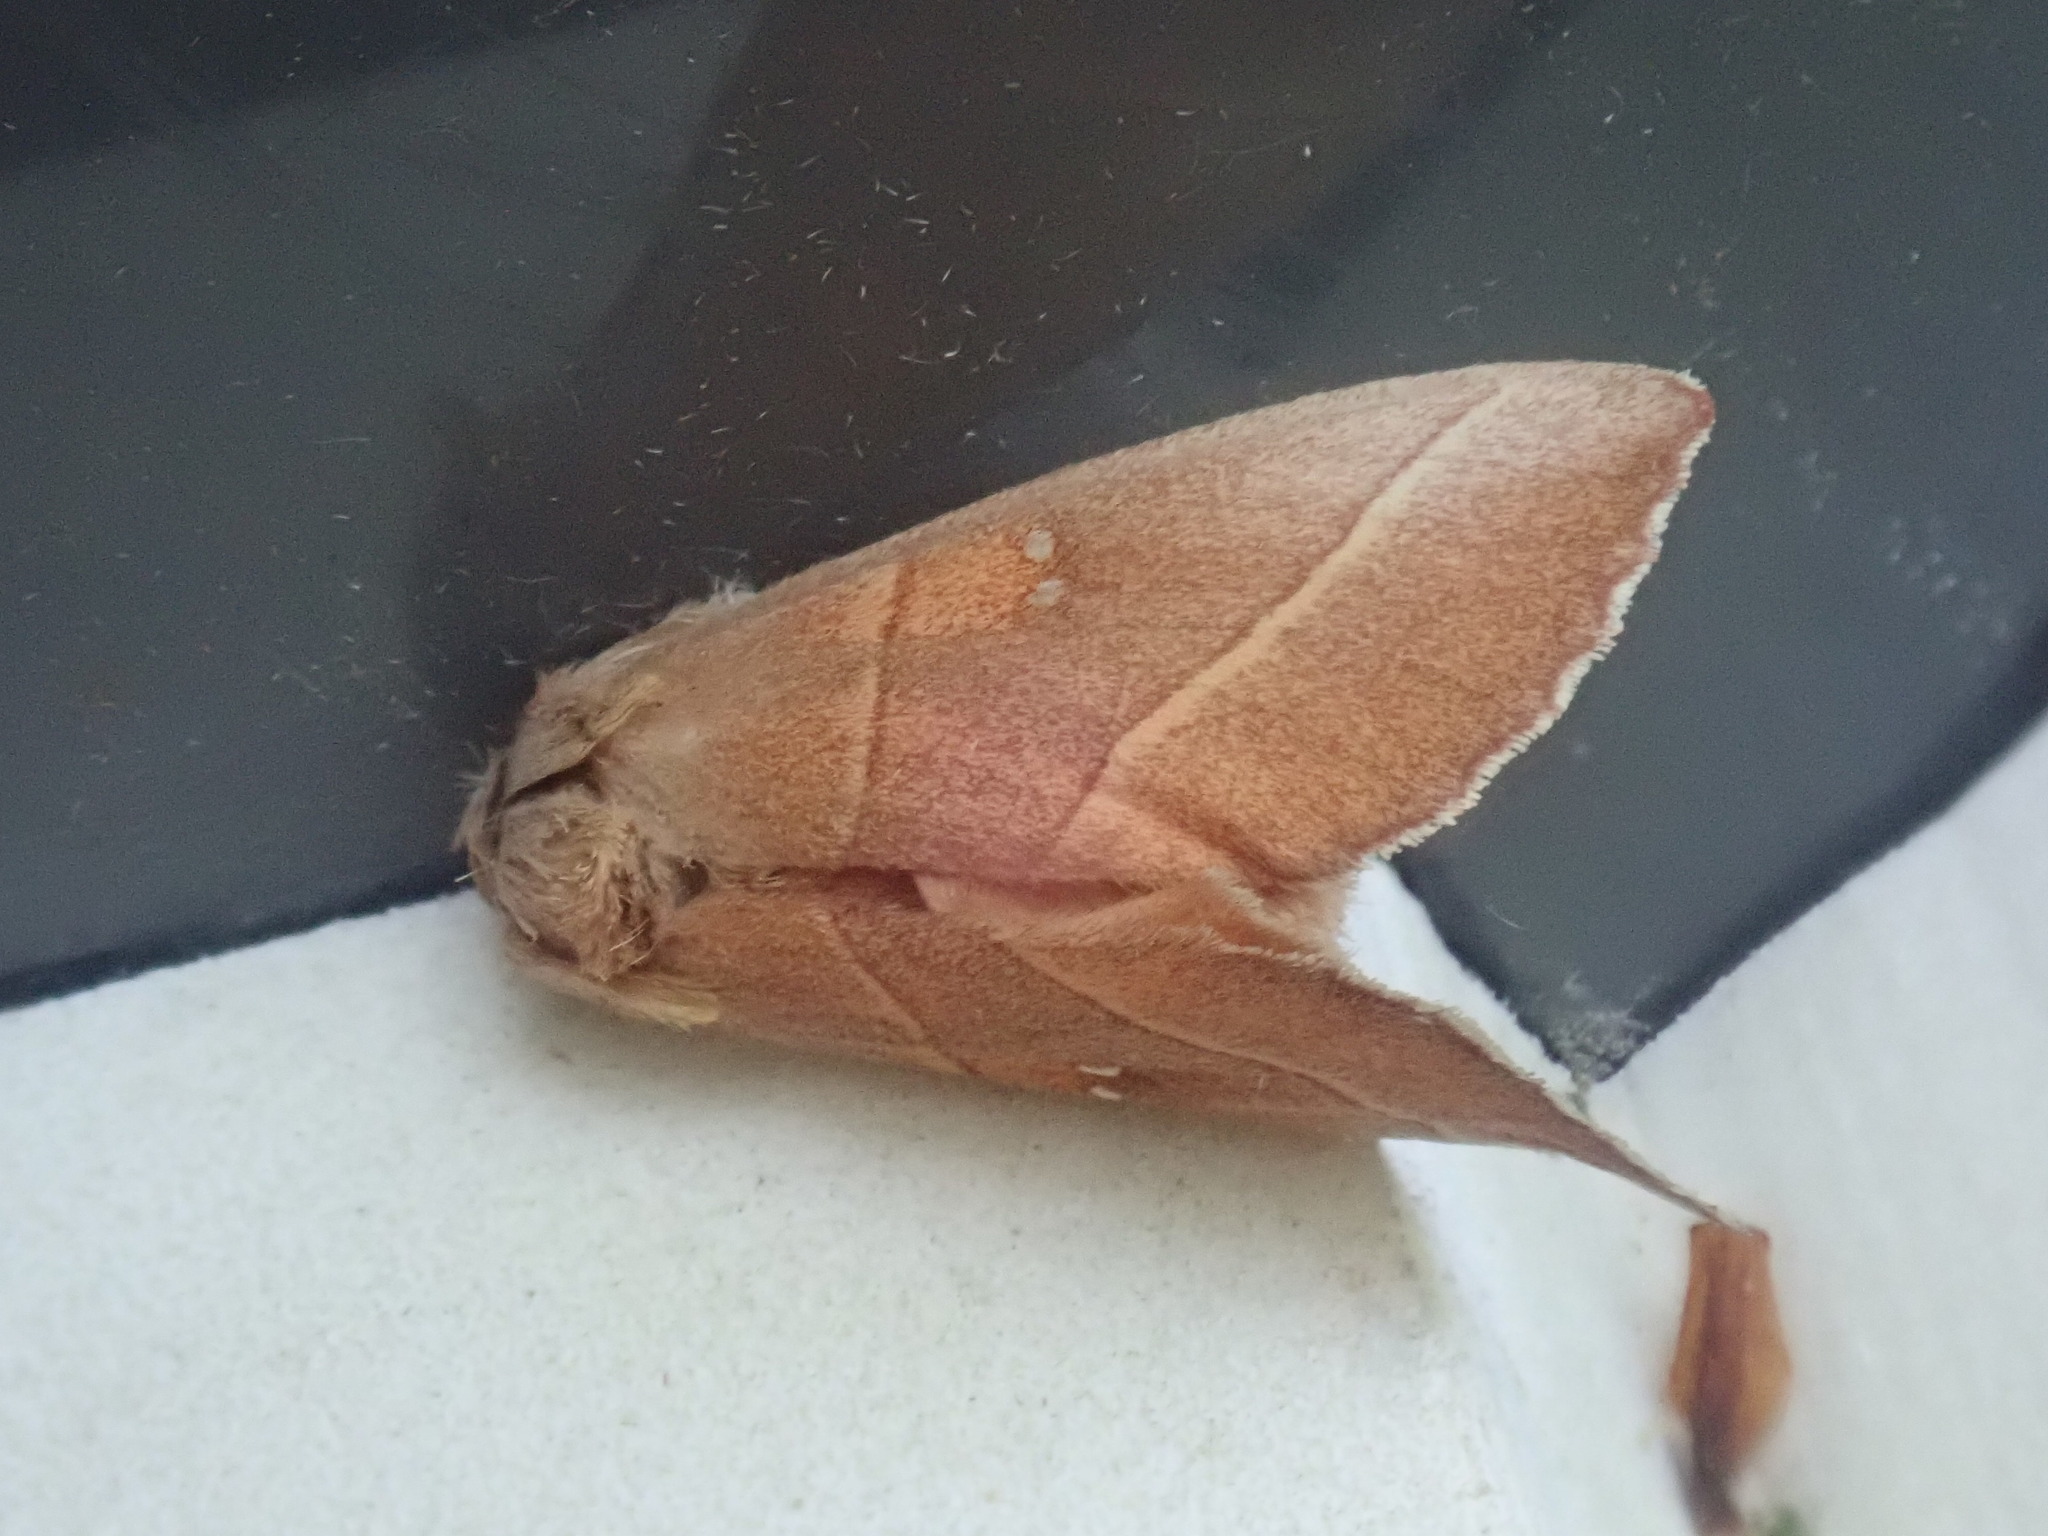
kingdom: Animalia
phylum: Arthropoda
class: Insecta
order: Lepidoptera
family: Notodontidae
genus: Nadata
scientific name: Nadata gibbosa
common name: White-dotted prominent
